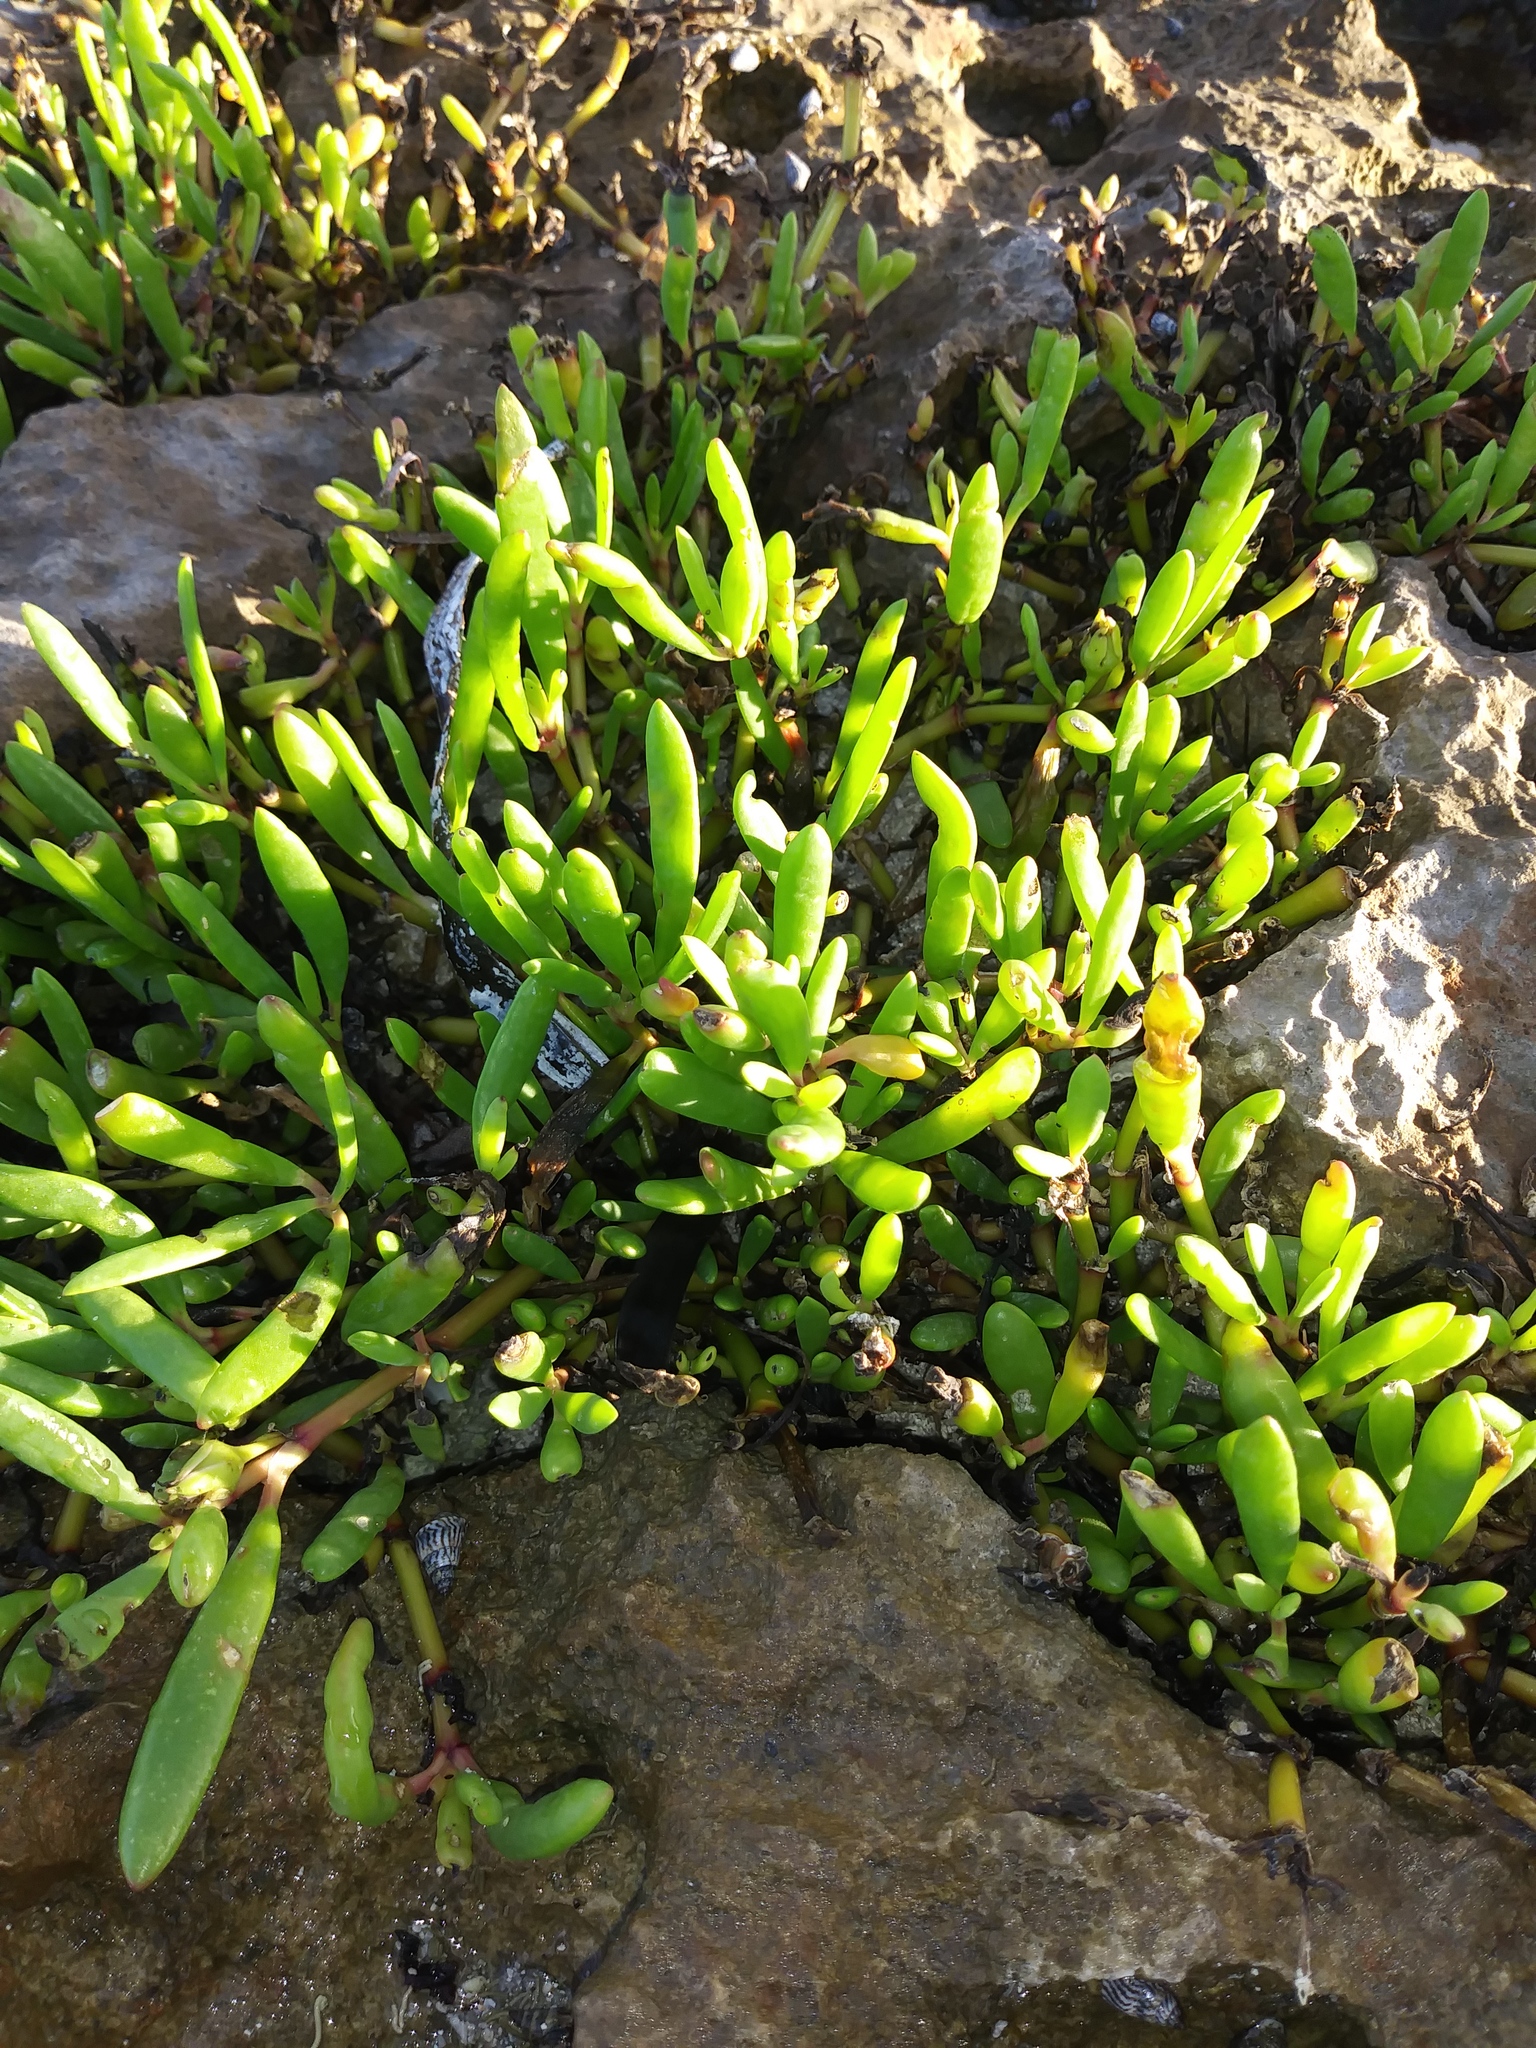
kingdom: Plantae
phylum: Tracheophyta
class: Magnoliopsida
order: Caryophyllales
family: Aizoaceae
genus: Sesuvium
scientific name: Sesuvium portulacastrum
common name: Sea-purslane
